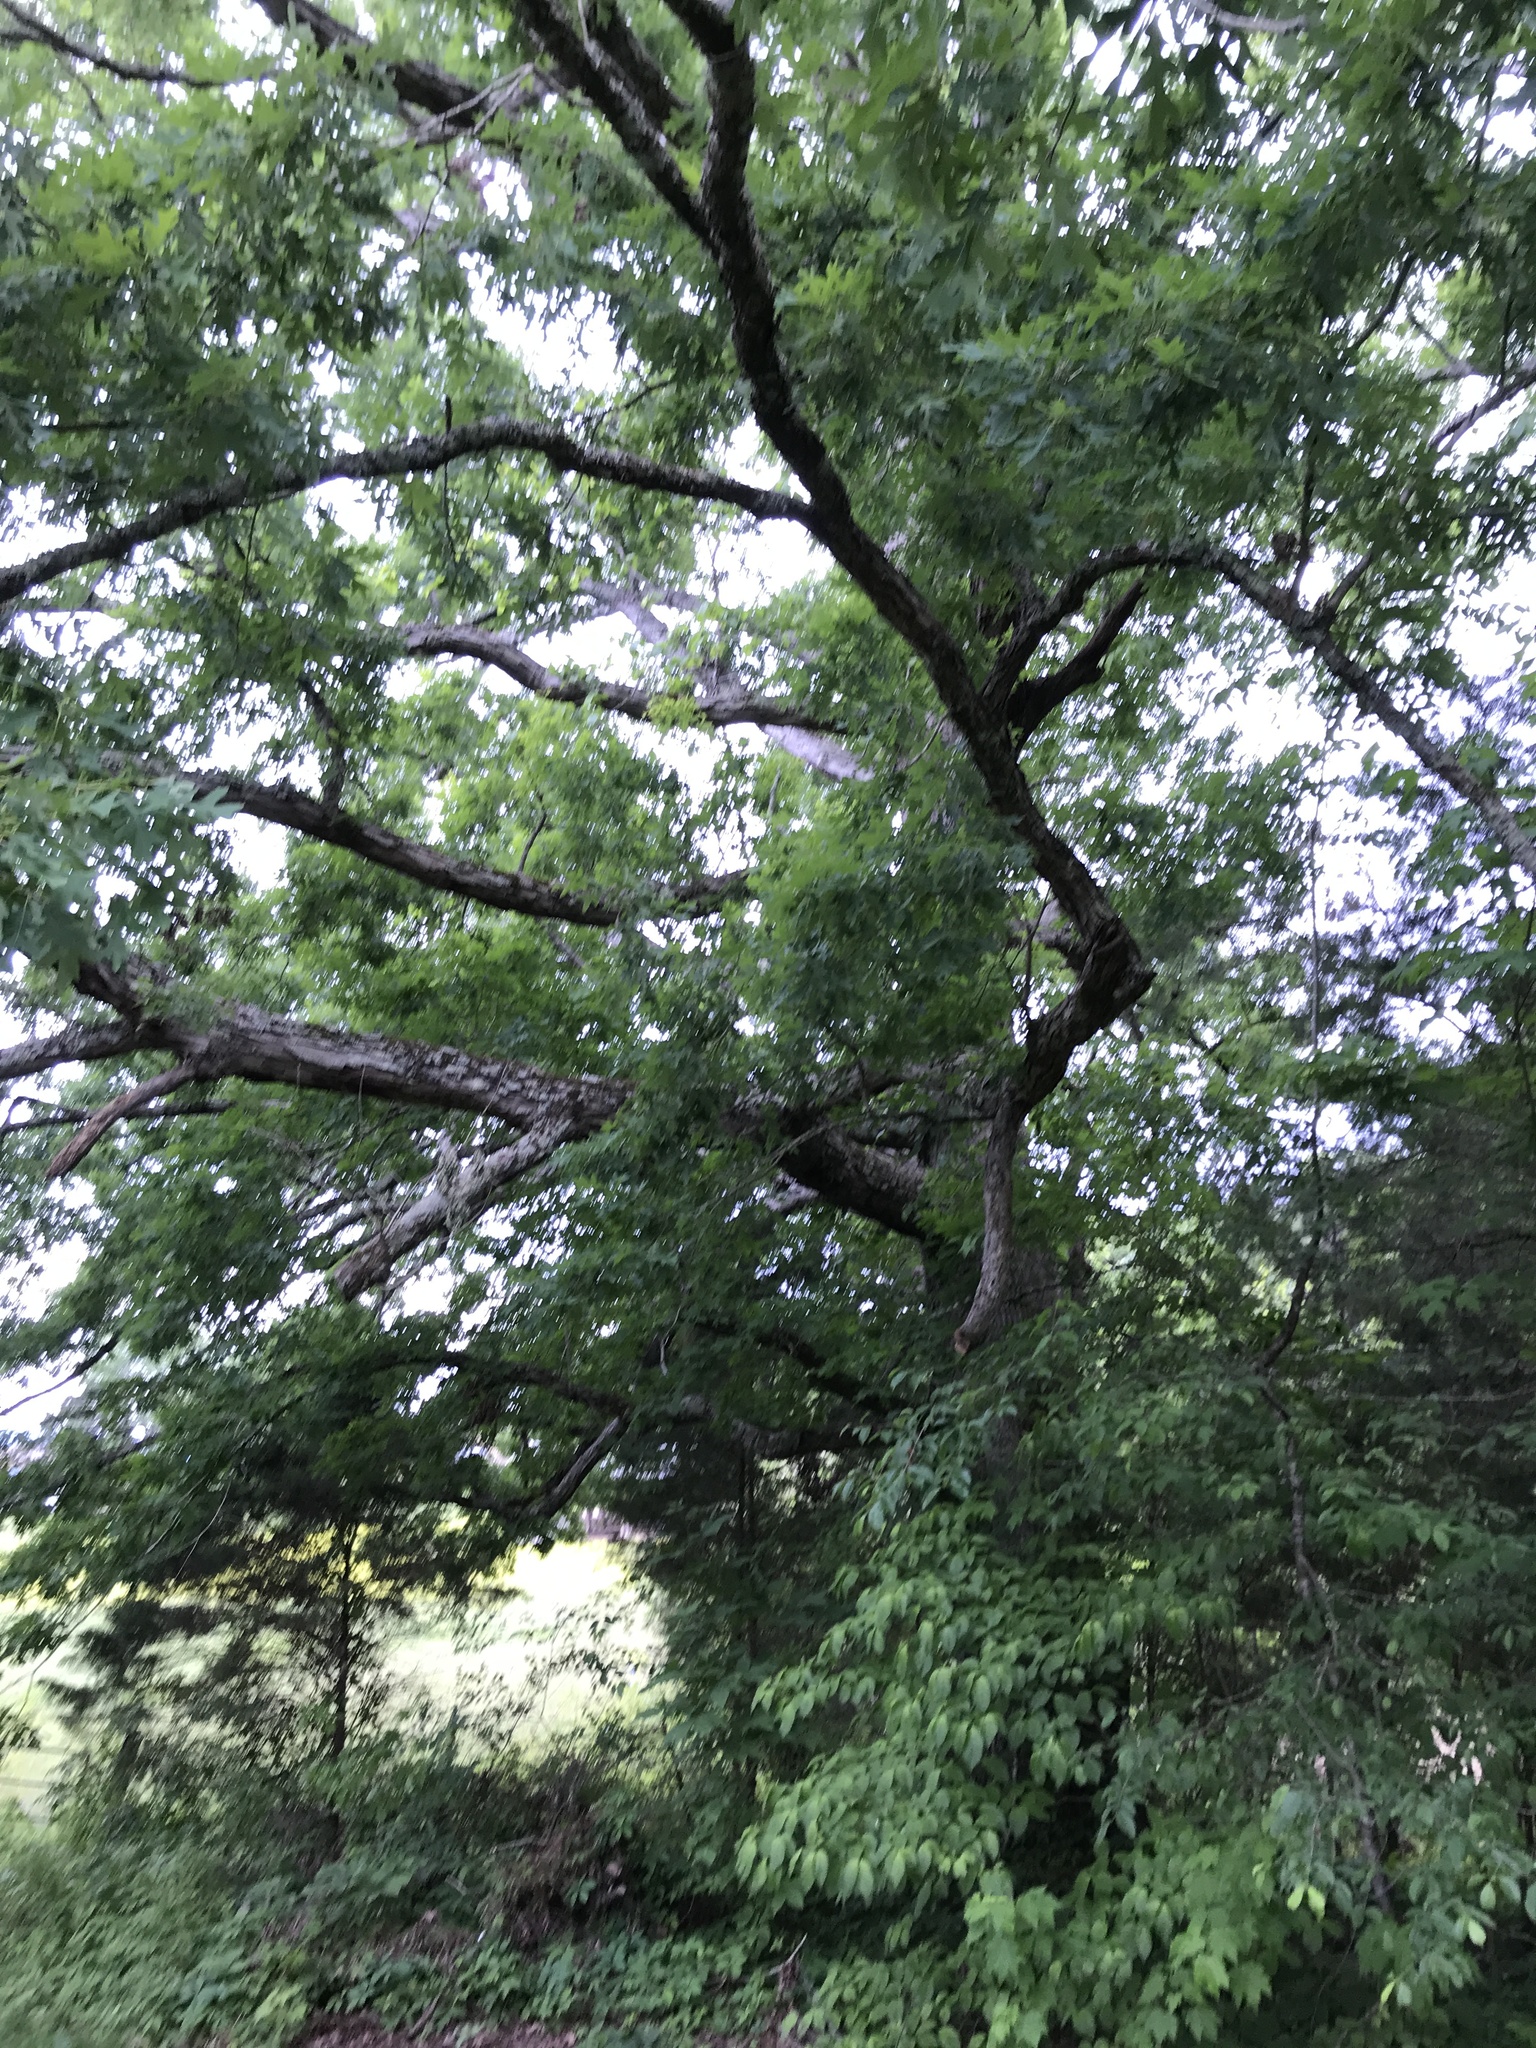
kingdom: Plantae
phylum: Tracheophyta
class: Magnoliopsida
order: Fagales
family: Fagaceae
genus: Quercus
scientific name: Quercus alba
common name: White oak
